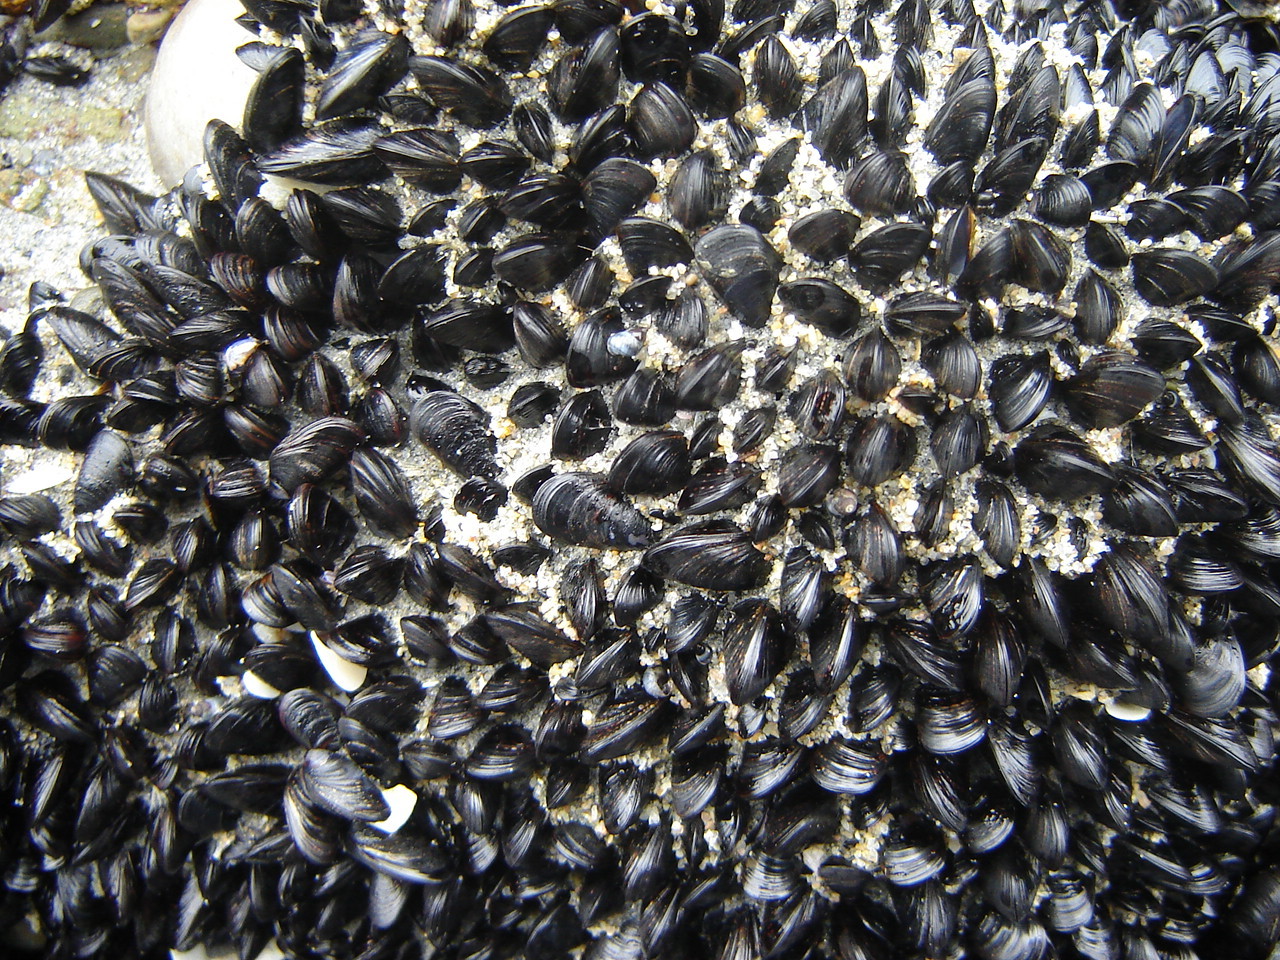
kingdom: Animalia
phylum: Mollusca
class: Bivalvia
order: Mytilida
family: Mytilidae
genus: Xenostrobus
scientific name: Xenostrobus neozelanicus
